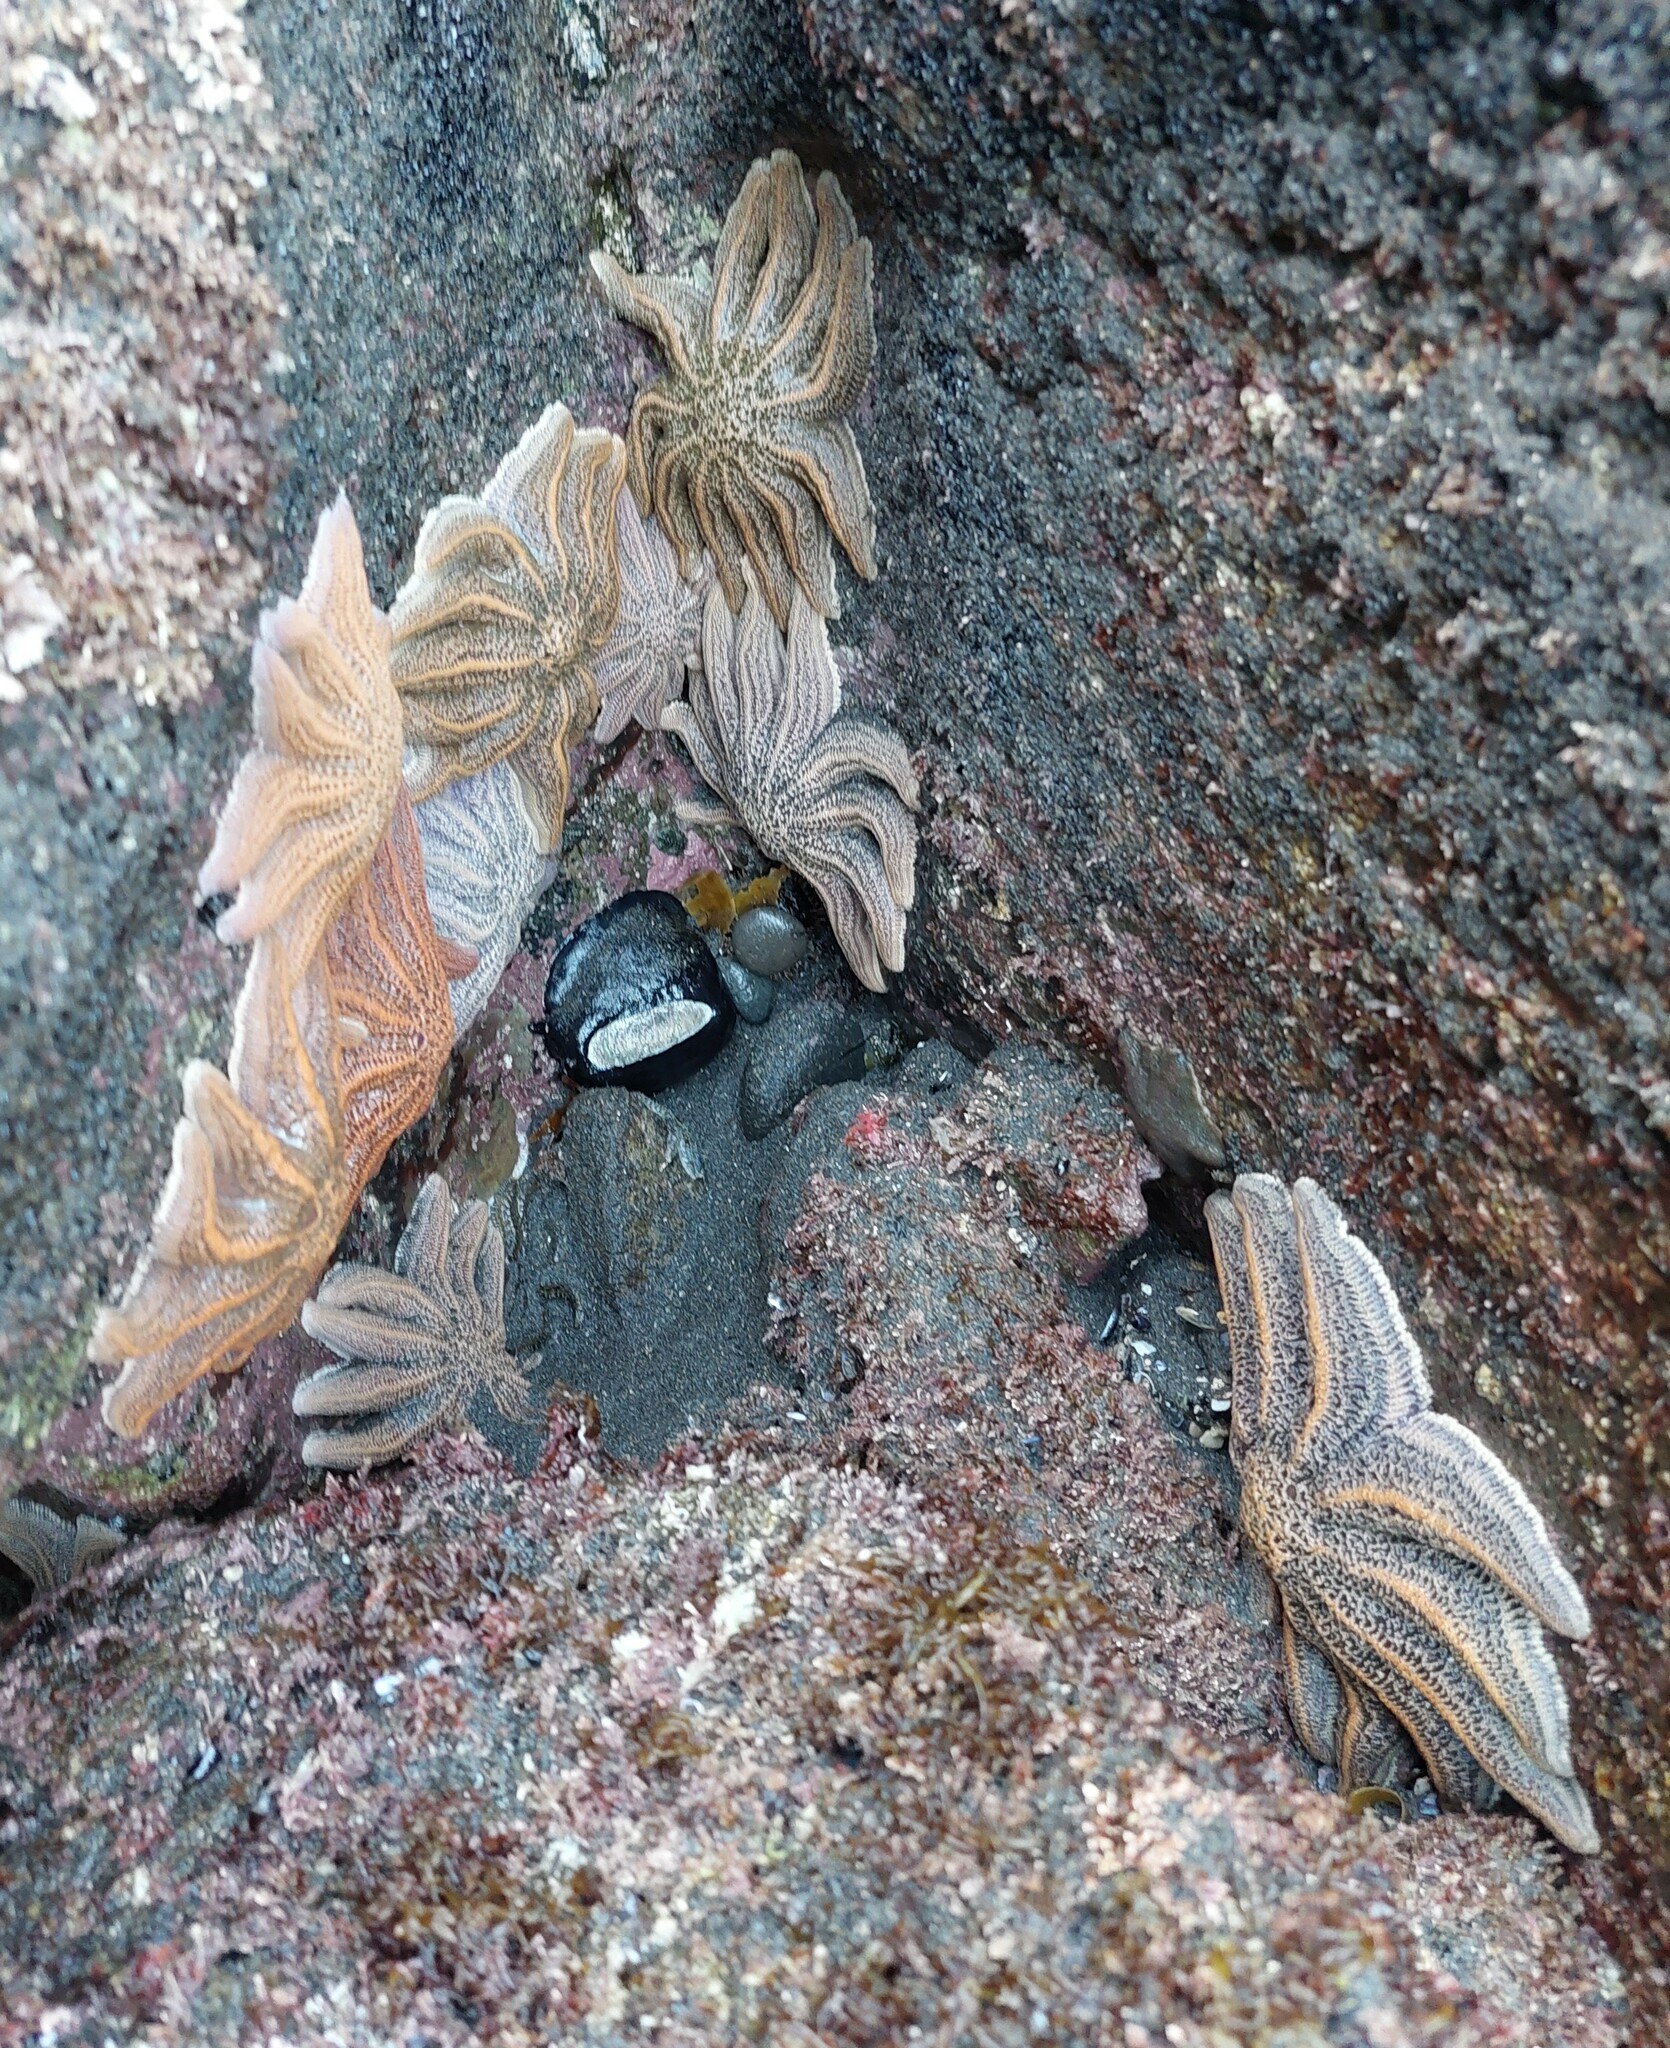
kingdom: Animalia
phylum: Echinodermata
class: Asteroidea
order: Forcipulatida
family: Stichasteridae
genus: Stichaster
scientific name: Stichaster australis
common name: Reef starfish
